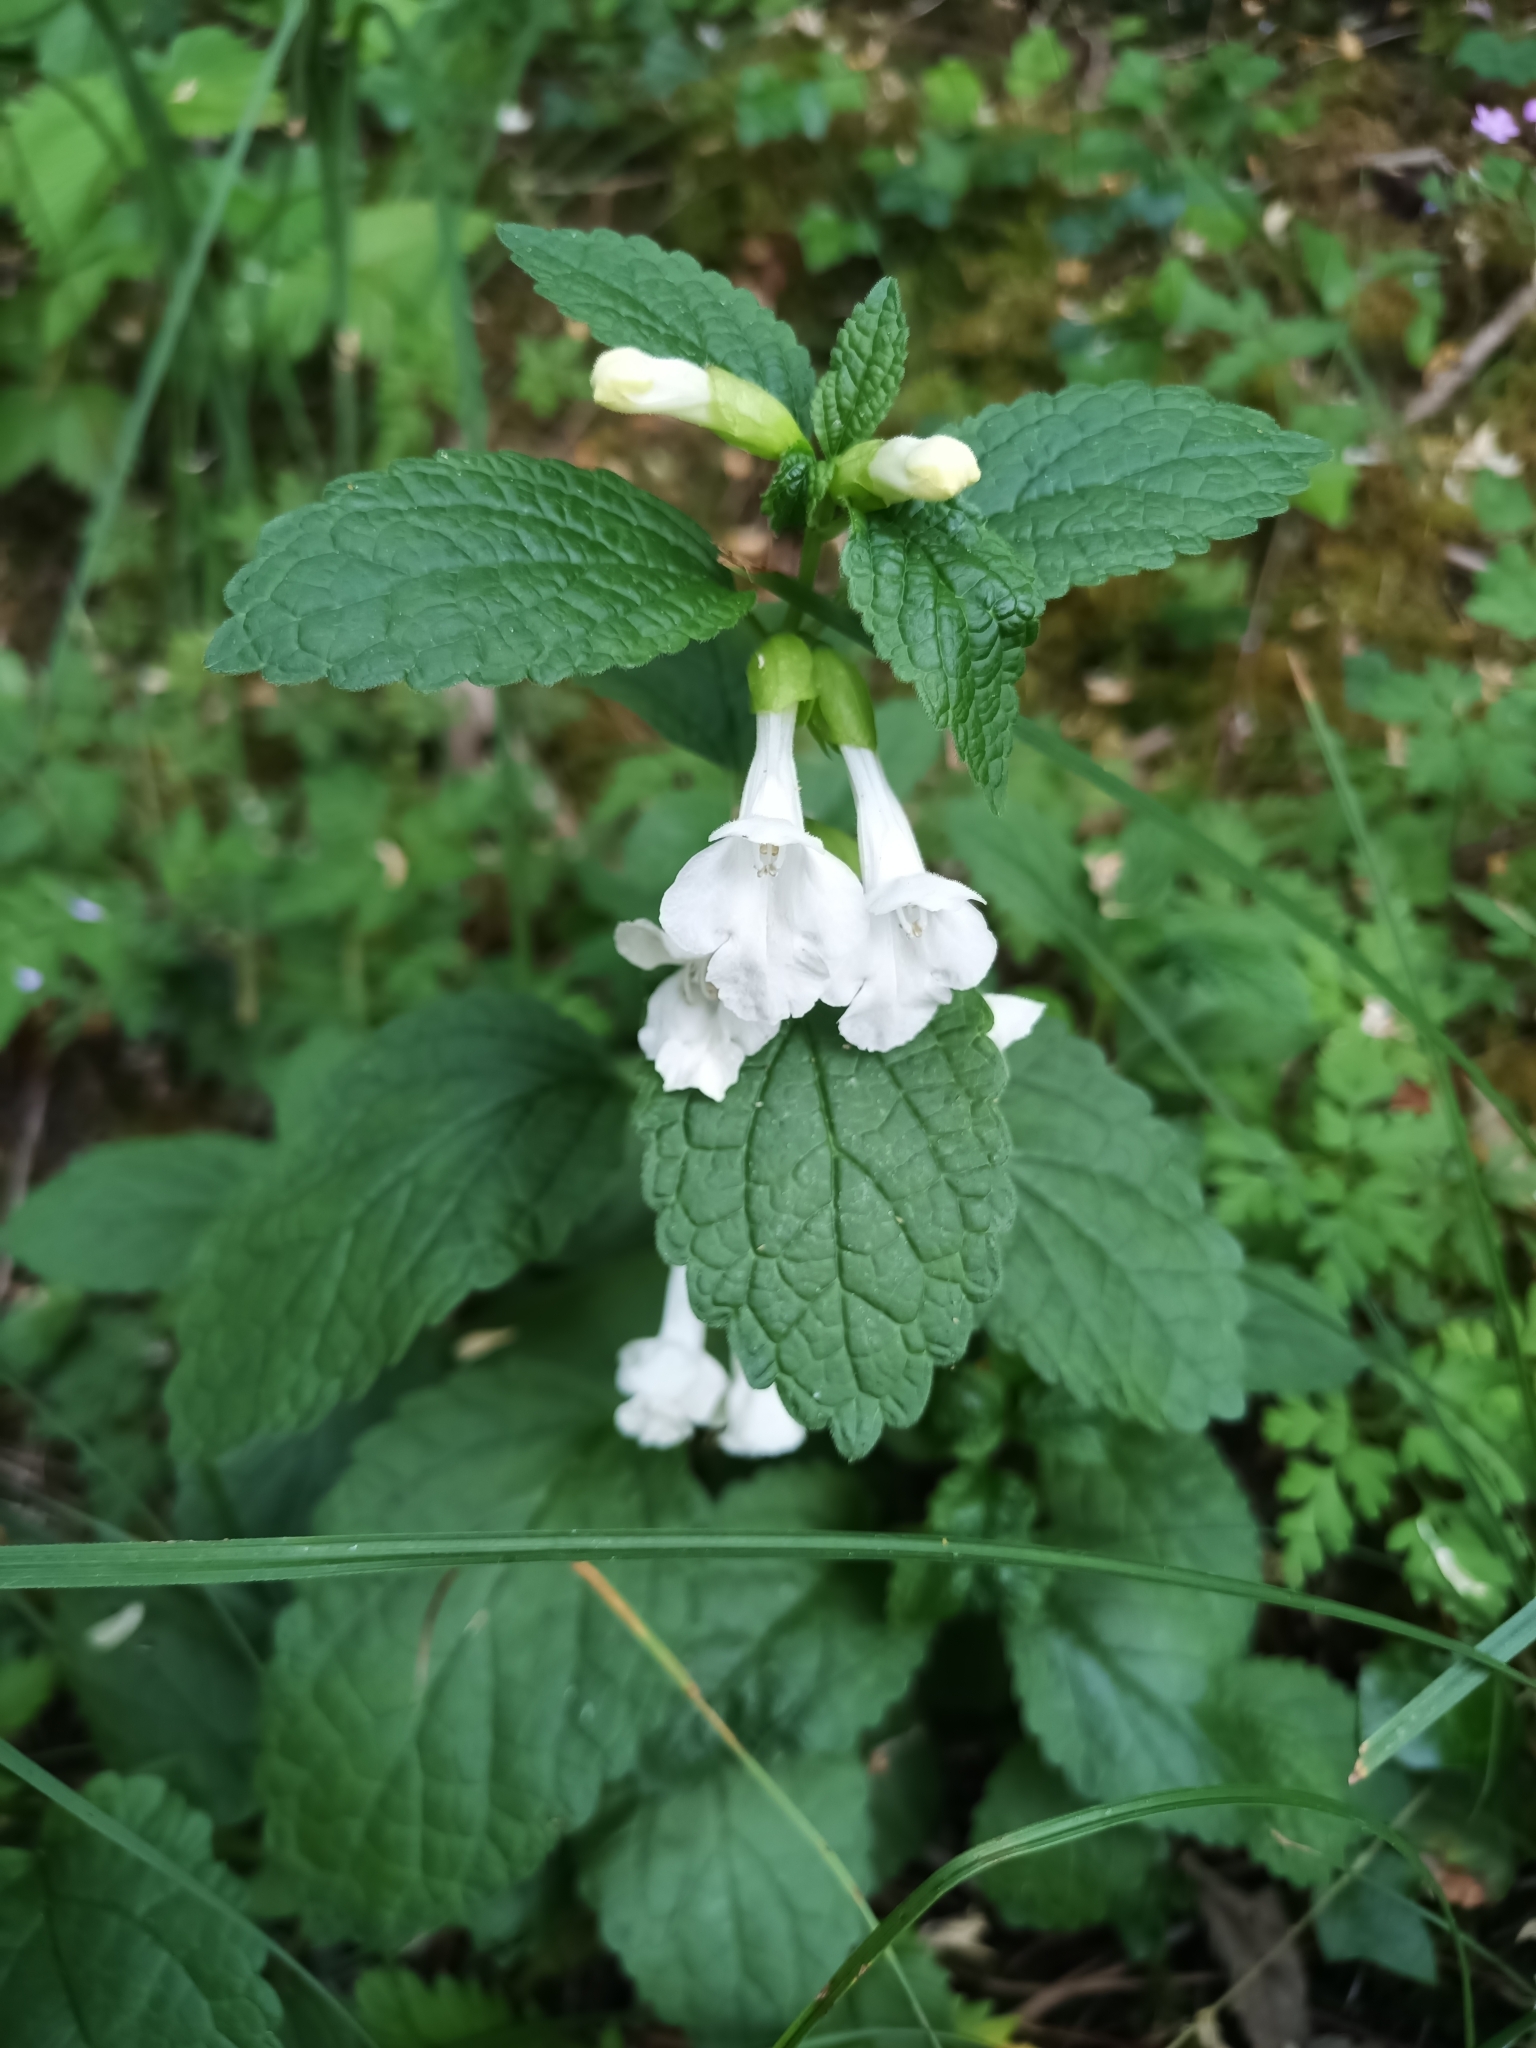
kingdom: Plantae
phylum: Tracheophyta
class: Magnoliopsida
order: Lamiales
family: Lamiaceae
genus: Melittis
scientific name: Melittis melissophyllum
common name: Bastard balm
